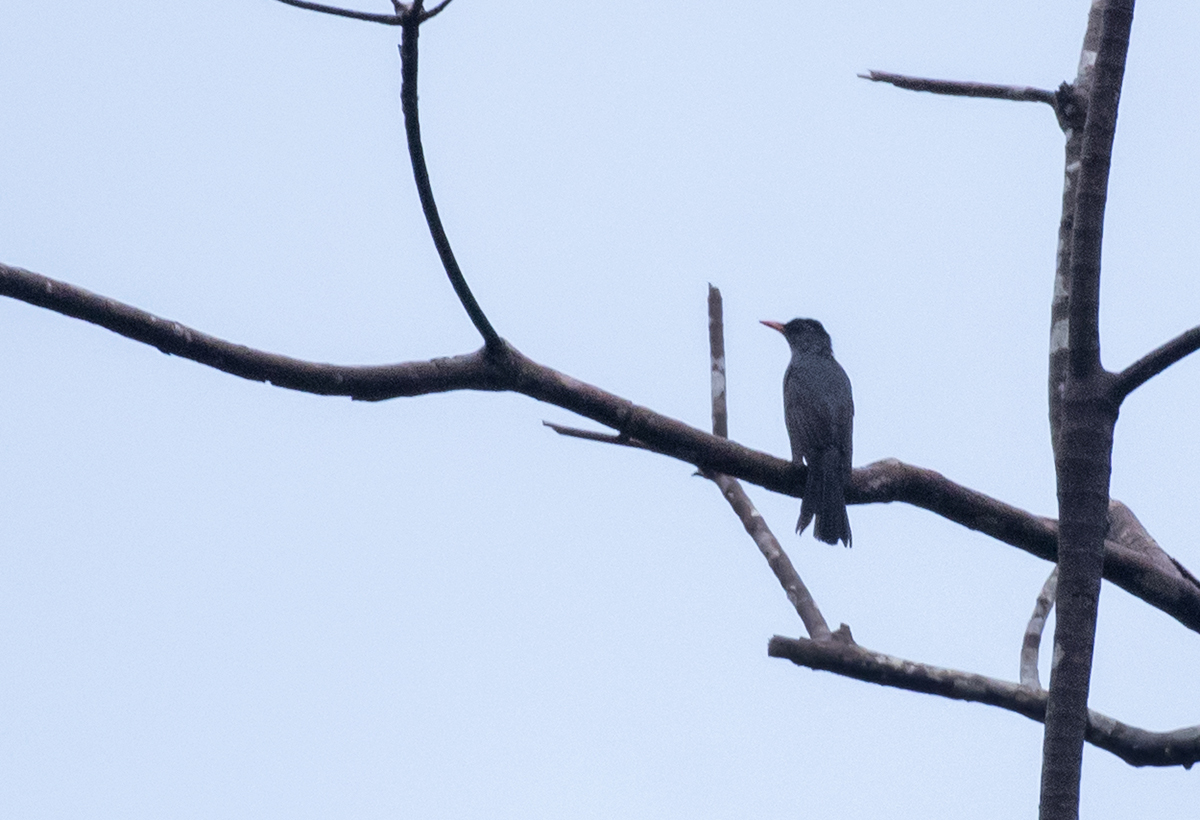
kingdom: Animalia
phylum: Chordata
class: Aves
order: Passeriformes
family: Pycnonotidae
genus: Hypsipetes
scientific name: Hypsipetes ganeesa
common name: Square-tailed bulbul
